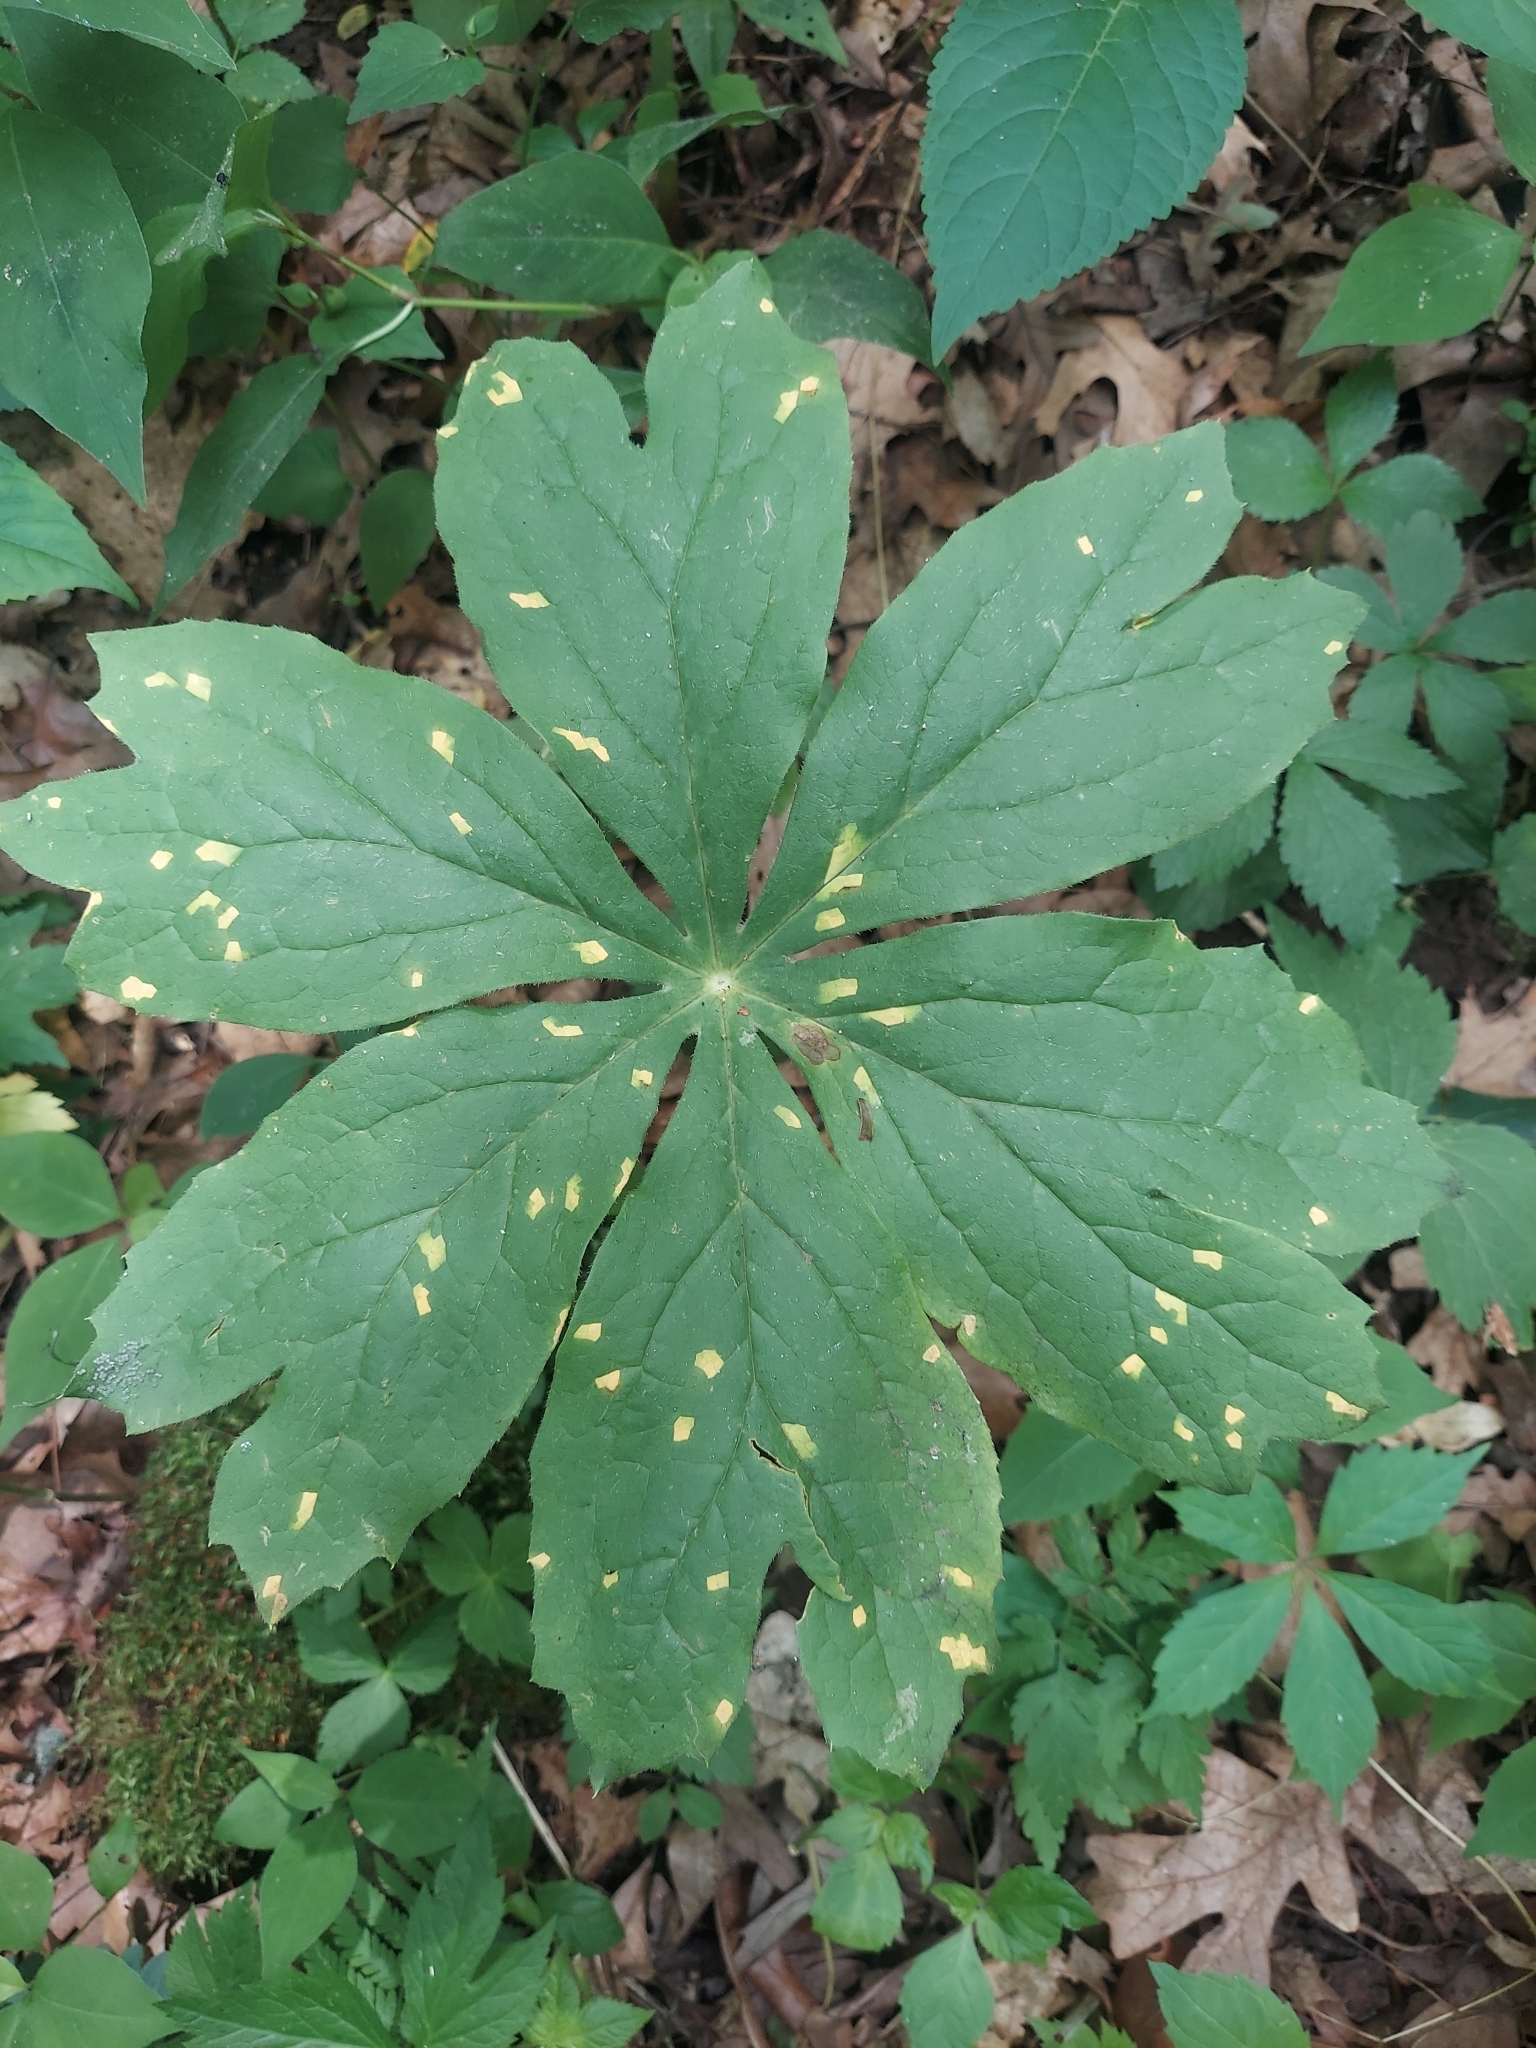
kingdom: Plantae
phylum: Tracheophyta
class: Magnoliopsida
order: Ranunculales
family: Berberidaceae
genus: Podophyllum
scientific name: Podophyllum peltatum
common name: Wild mandrake
